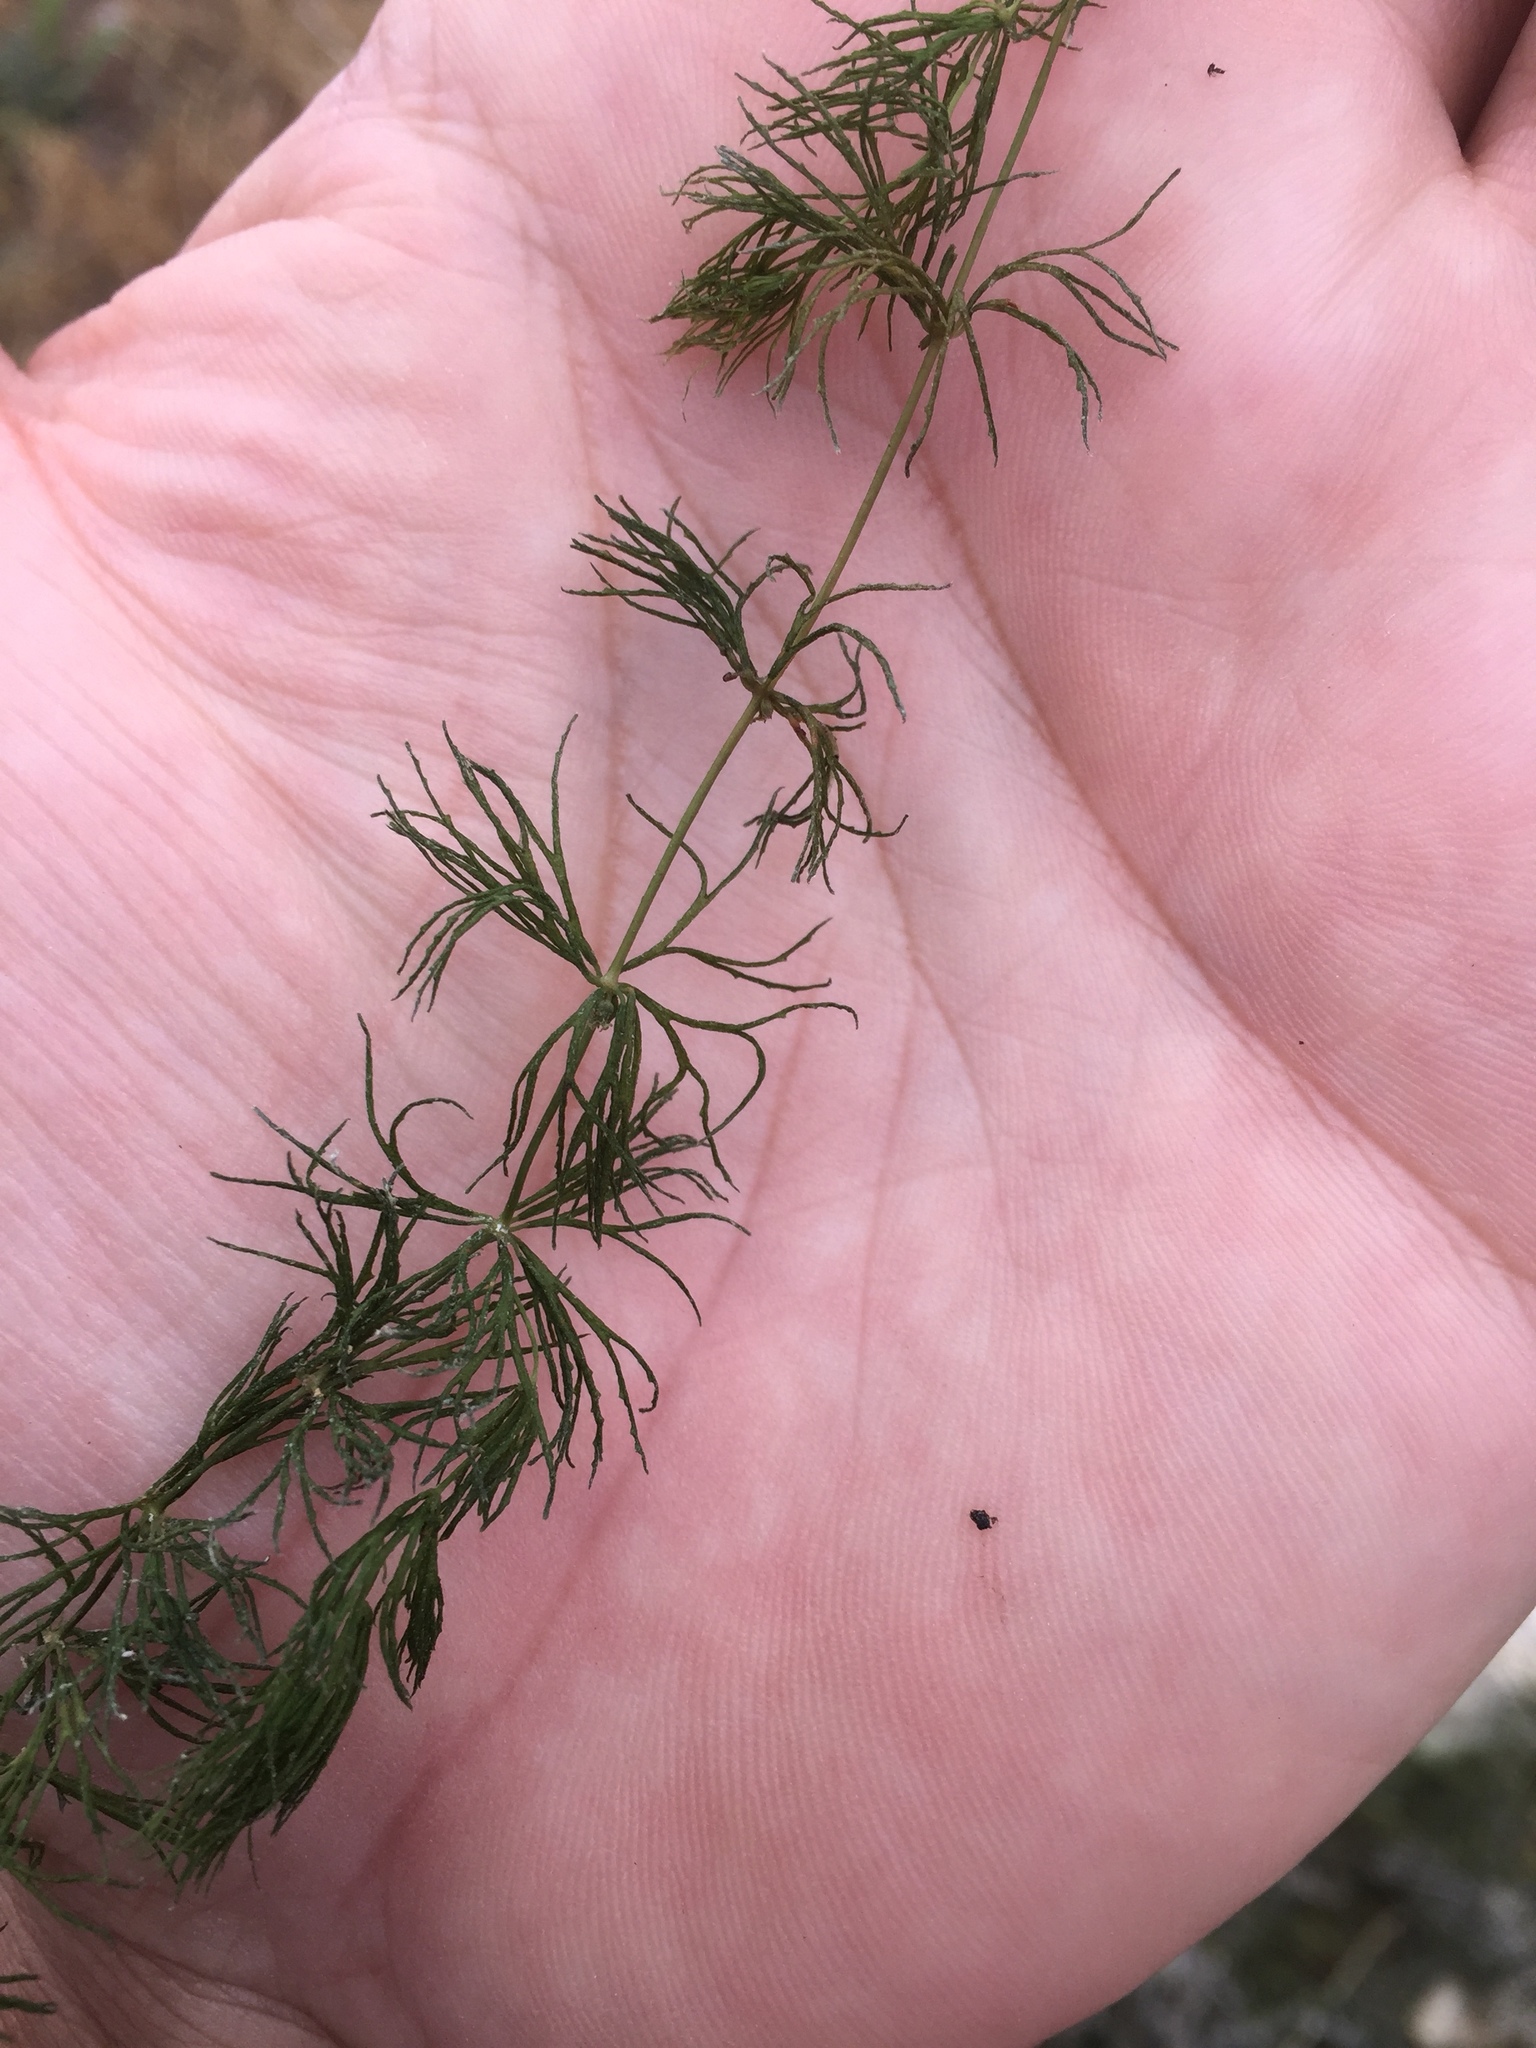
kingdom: Plantae
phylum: Tracheophyta
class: Magnoliopsida
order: Ceratophyllales
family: Ceratophyllaceae
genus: Ceratophyllum
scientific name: Ceratophyllum demersum
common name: Rigid hornwort
